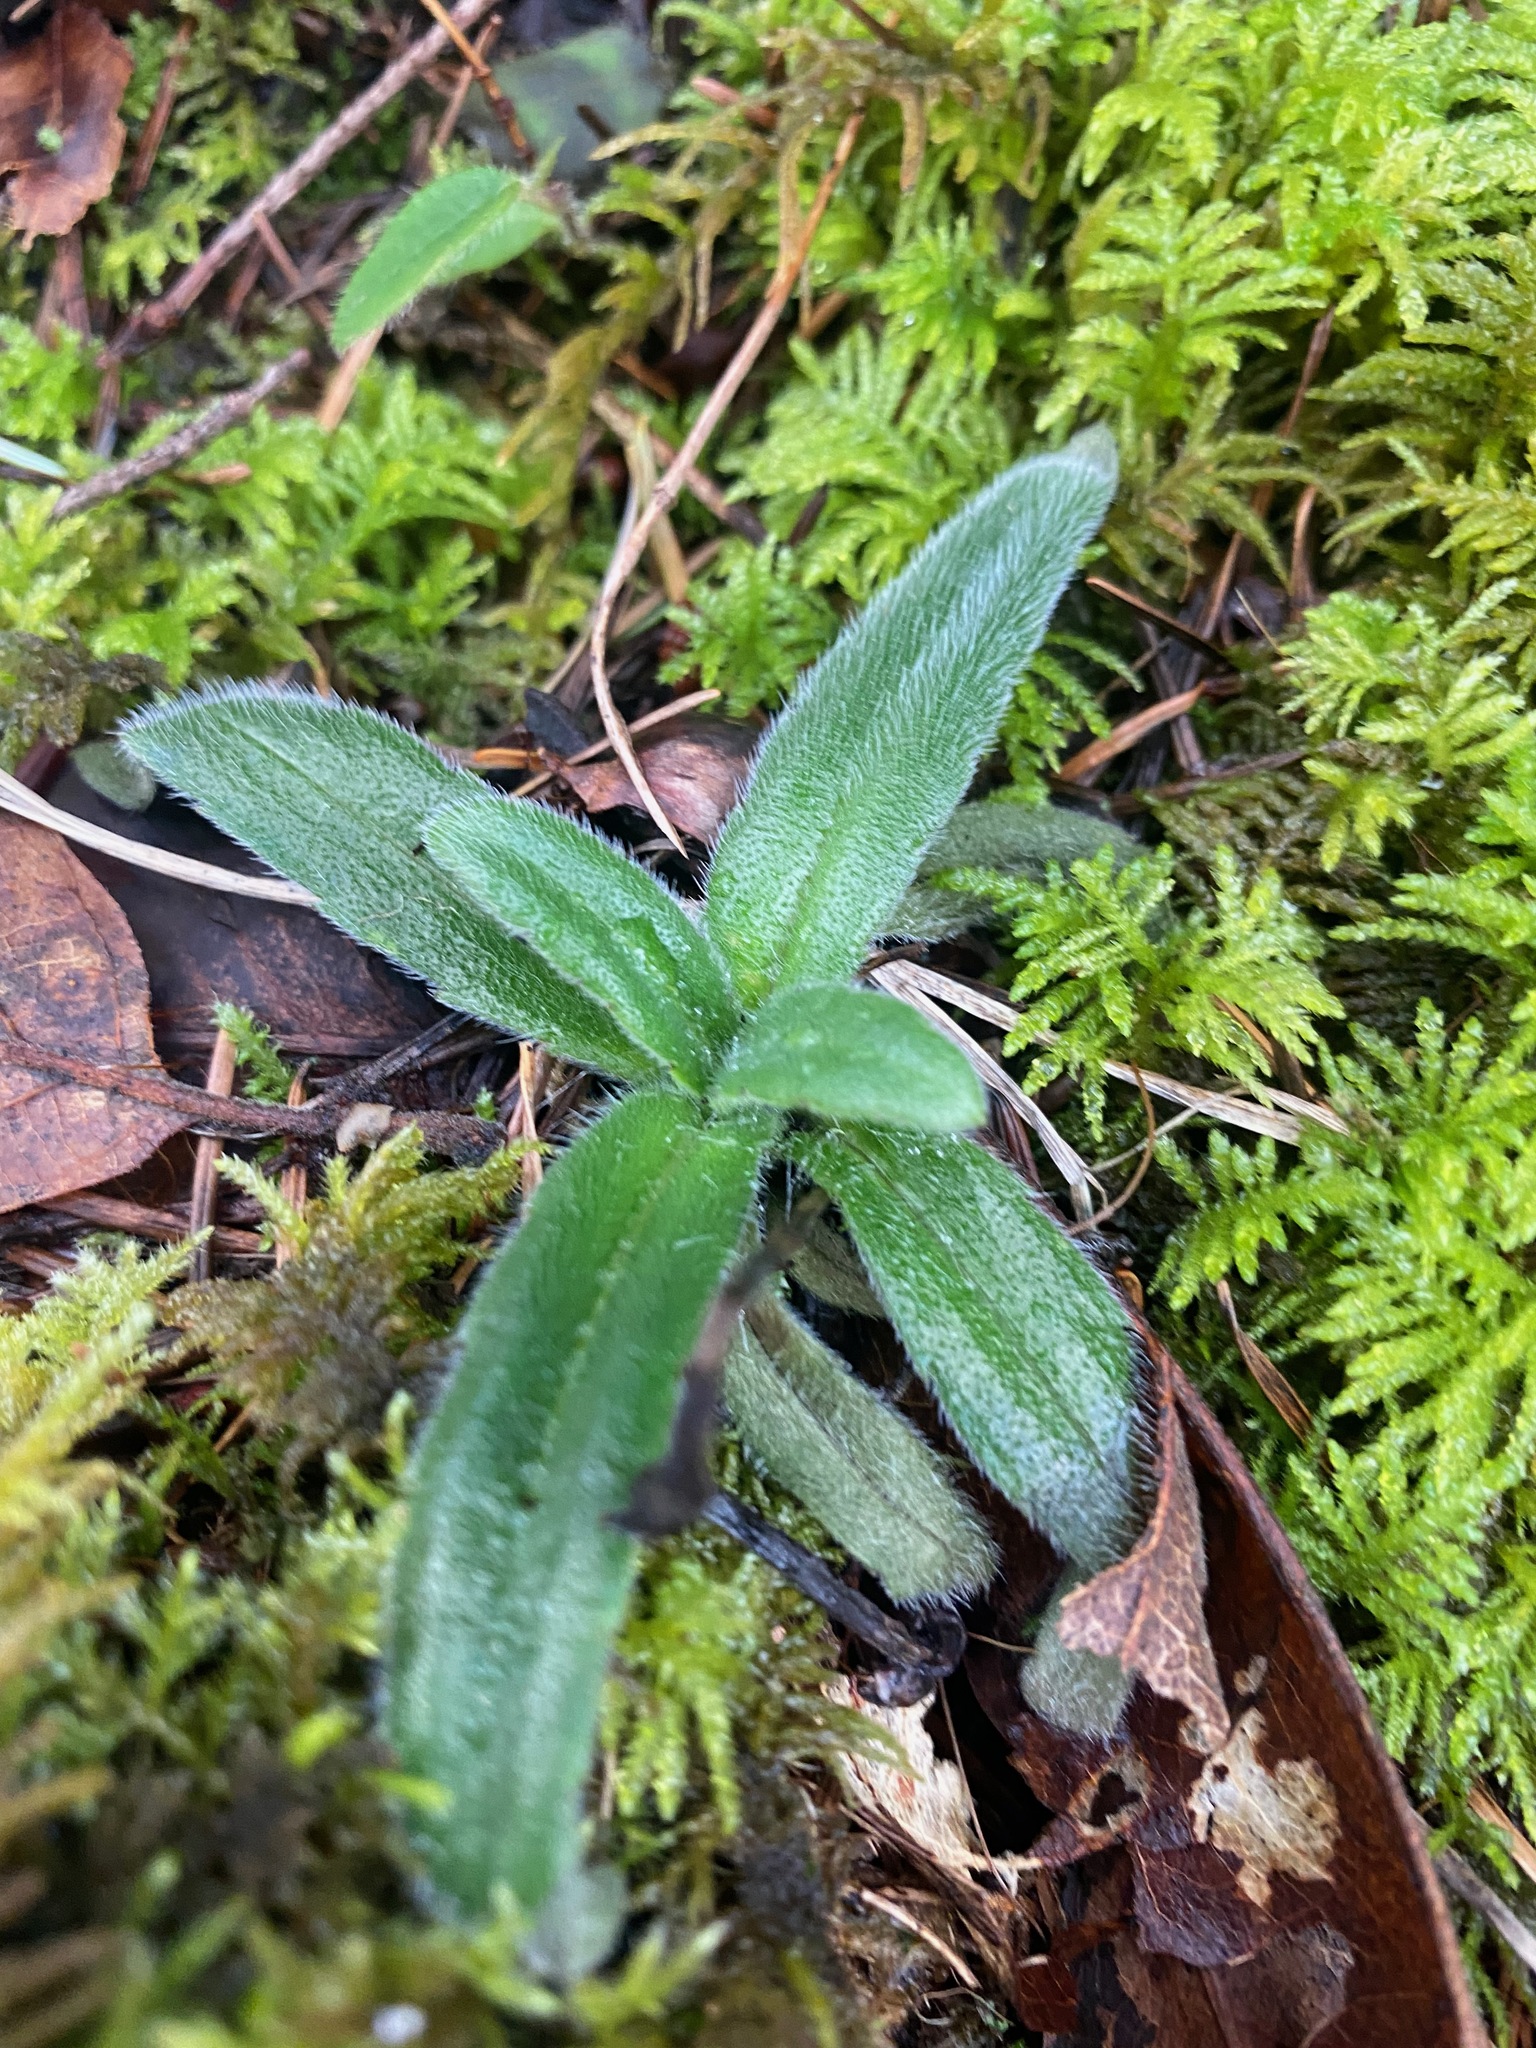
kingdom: Plantae
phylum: Tracheophyta
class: Magnoliopsida
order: Asterales
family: Asteraceae
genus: Anisocarpus
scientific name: Anisocarpus madioides
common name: Woodland madia
